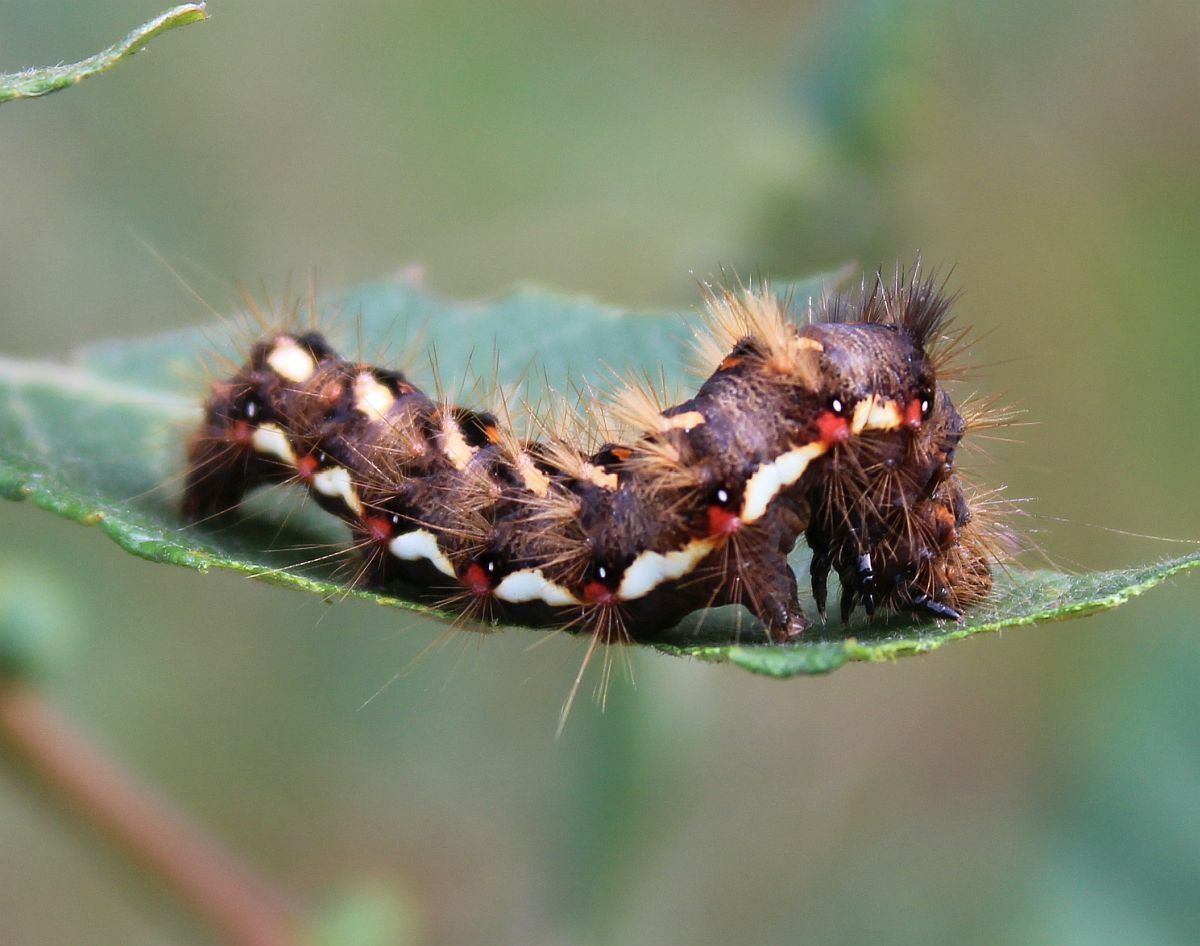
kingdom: Animalia
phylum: Arthropoda
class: Insecta
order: Lepidoptera
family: Noctuidae
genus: Acronicta
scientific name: Acronicta rumicis
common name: Knot grass
